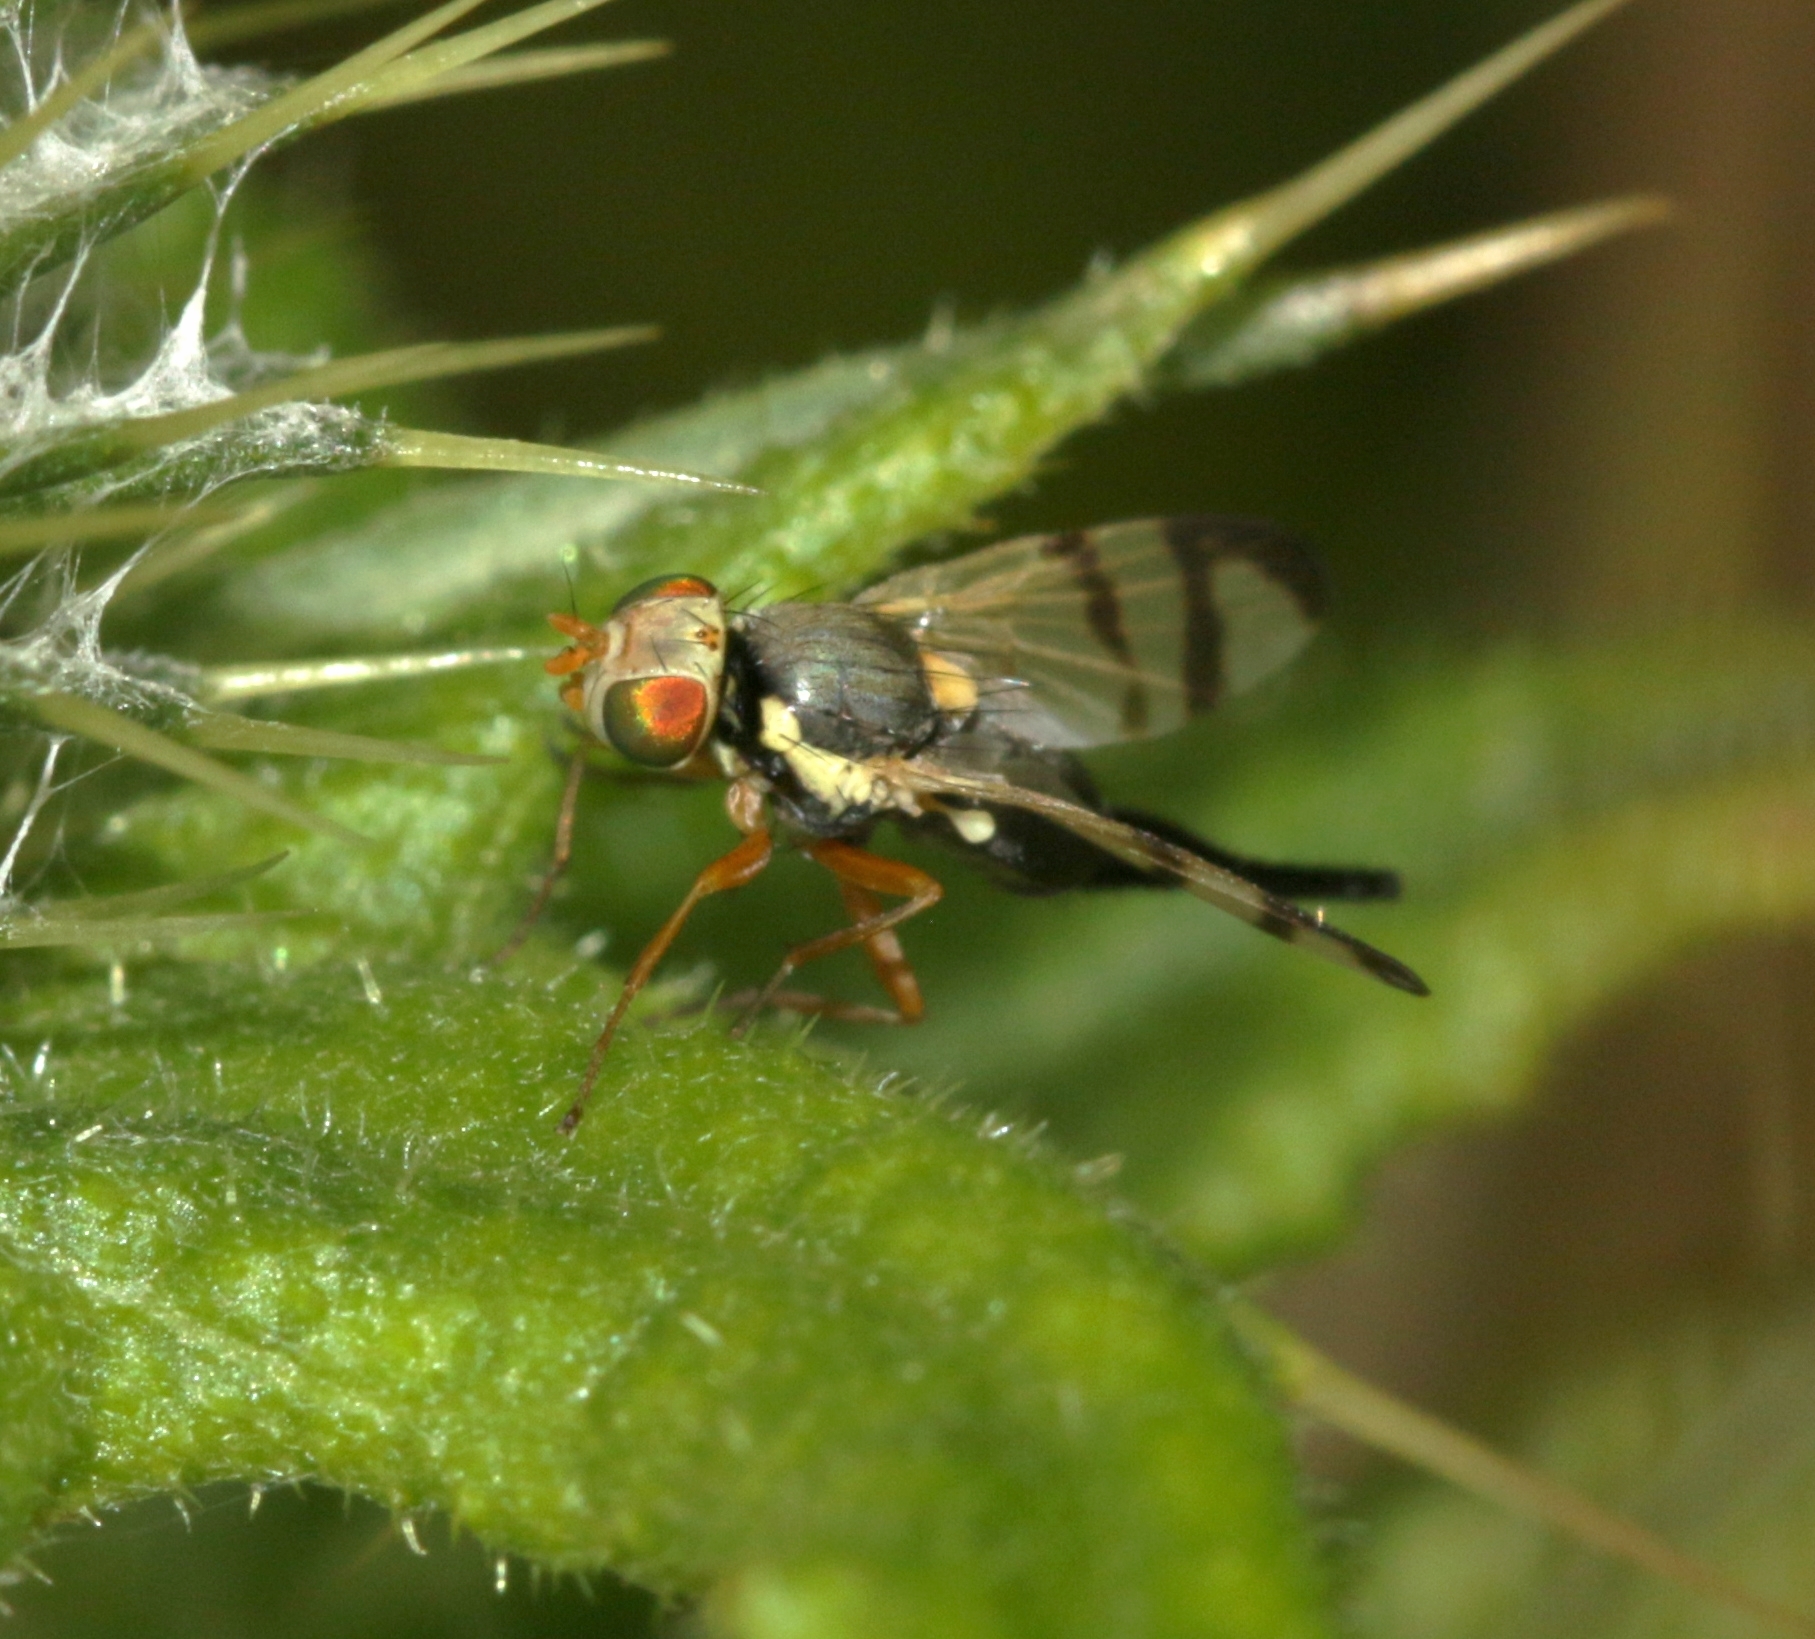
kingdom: Animalia
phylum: Arthropoda
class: Insecta
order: Diptera
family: Tephritidae
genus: Urophora
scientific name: Urophora stylata
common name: Fruit fly
